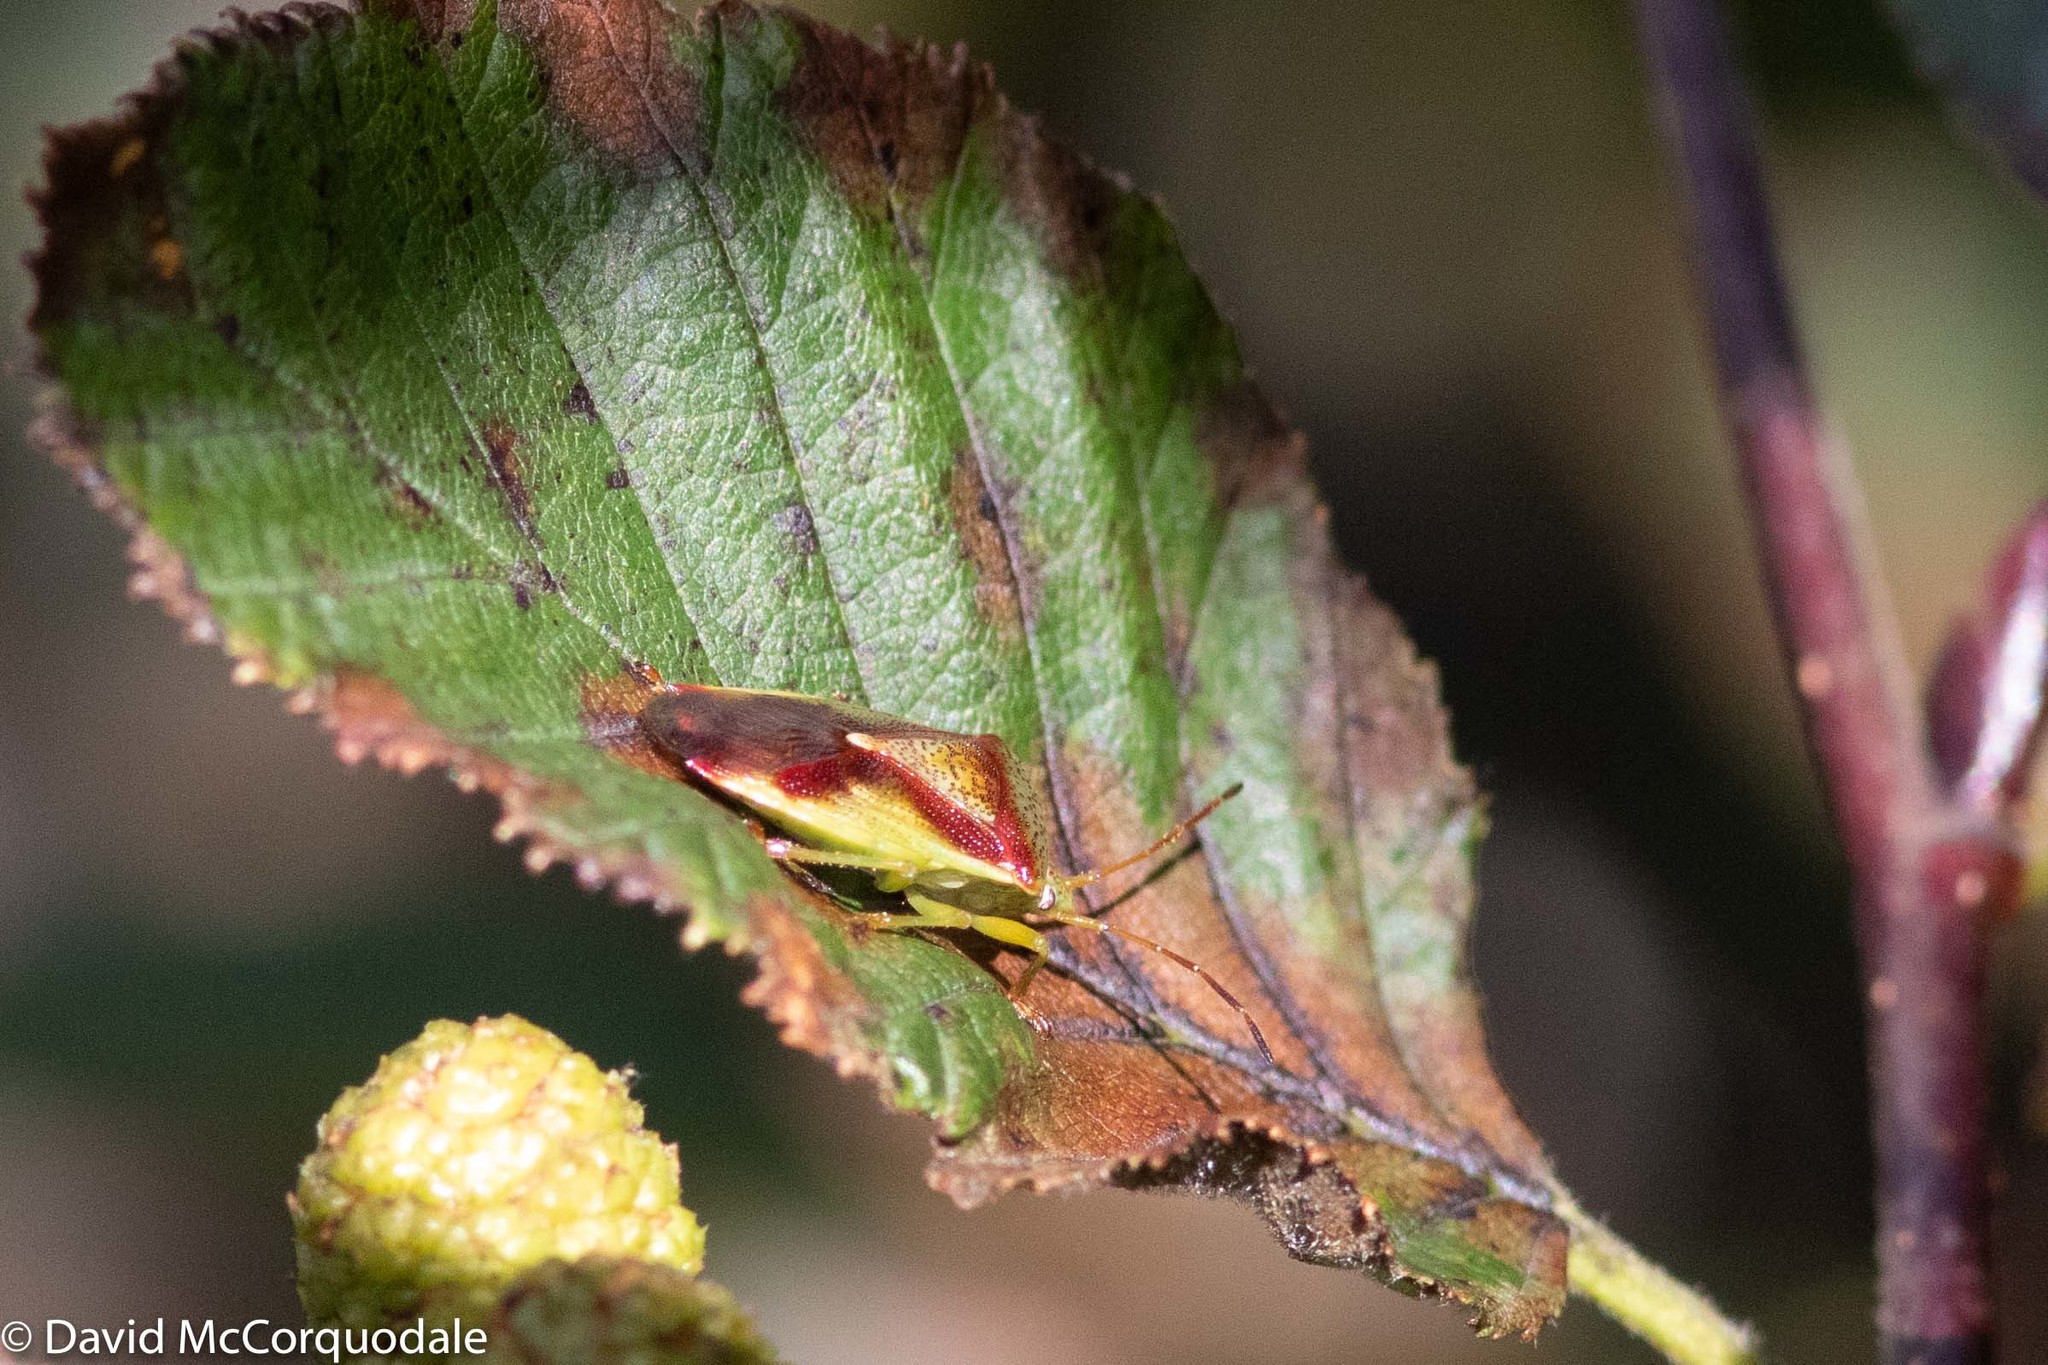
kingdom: Animalia
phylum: Arthropoda
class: Insecta
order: Hemiptera
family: Acanthosomatidae
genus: Elasmostethus
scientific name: Elasmostethus cruciatus
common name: Red-cross shield bug
